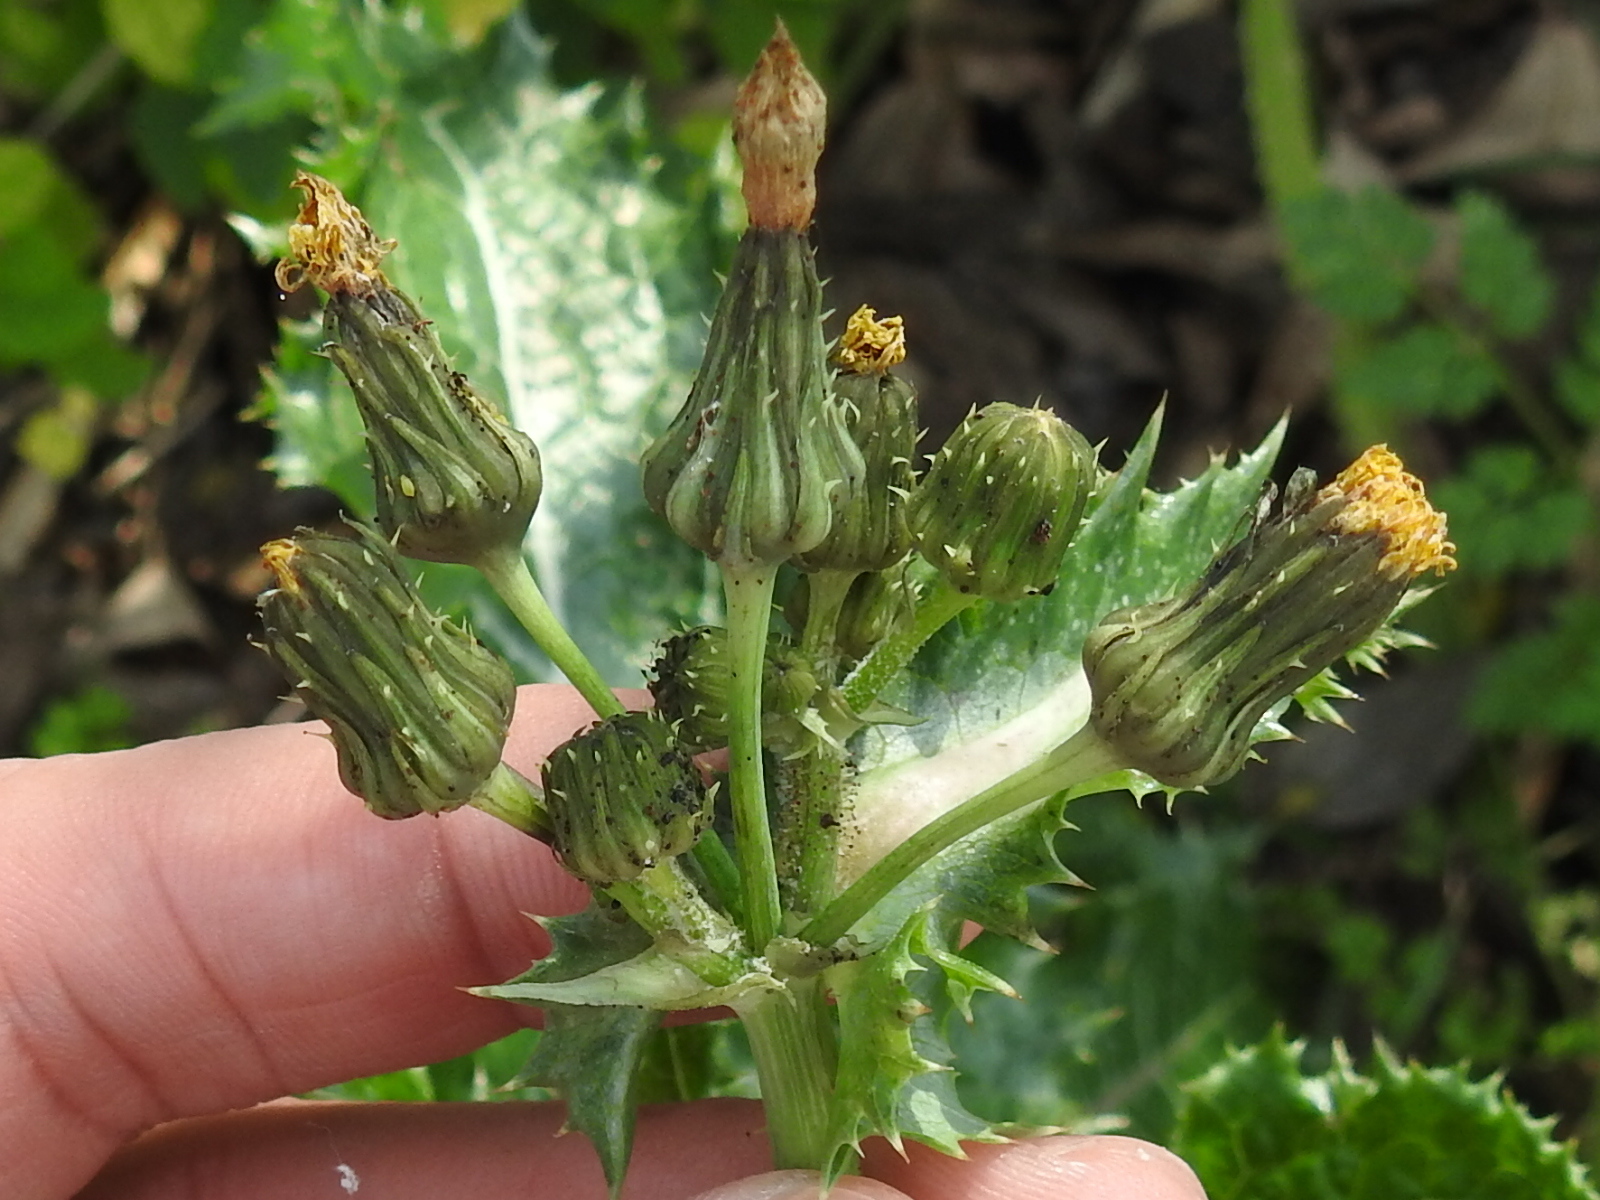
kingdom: Plantae
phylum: Tracheophyta
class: Magnoliopsida
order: Asterales
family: Asteraceae
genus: Sonchus
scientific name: Sonchus asper
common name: Prickly sow-thistle
